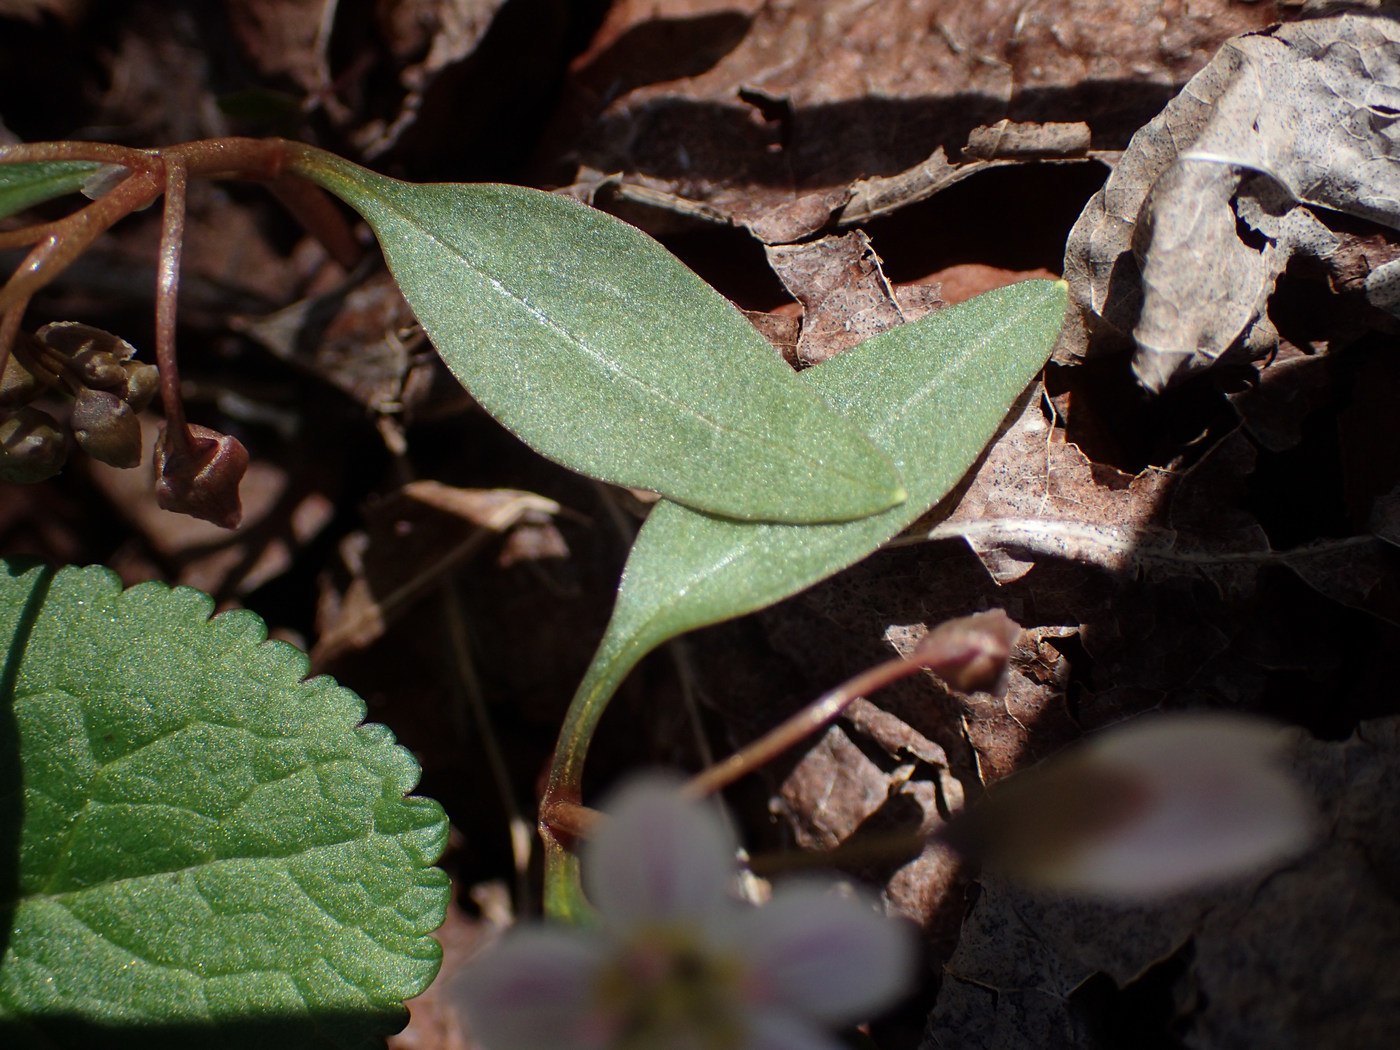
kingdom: Plantae
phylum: Tracheophyta
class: Magnoliopsida
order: Caryophyllales
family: Montiaceae
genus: Claytonia
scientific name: Claytonia caroliniana
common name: Carolina spring beauty
